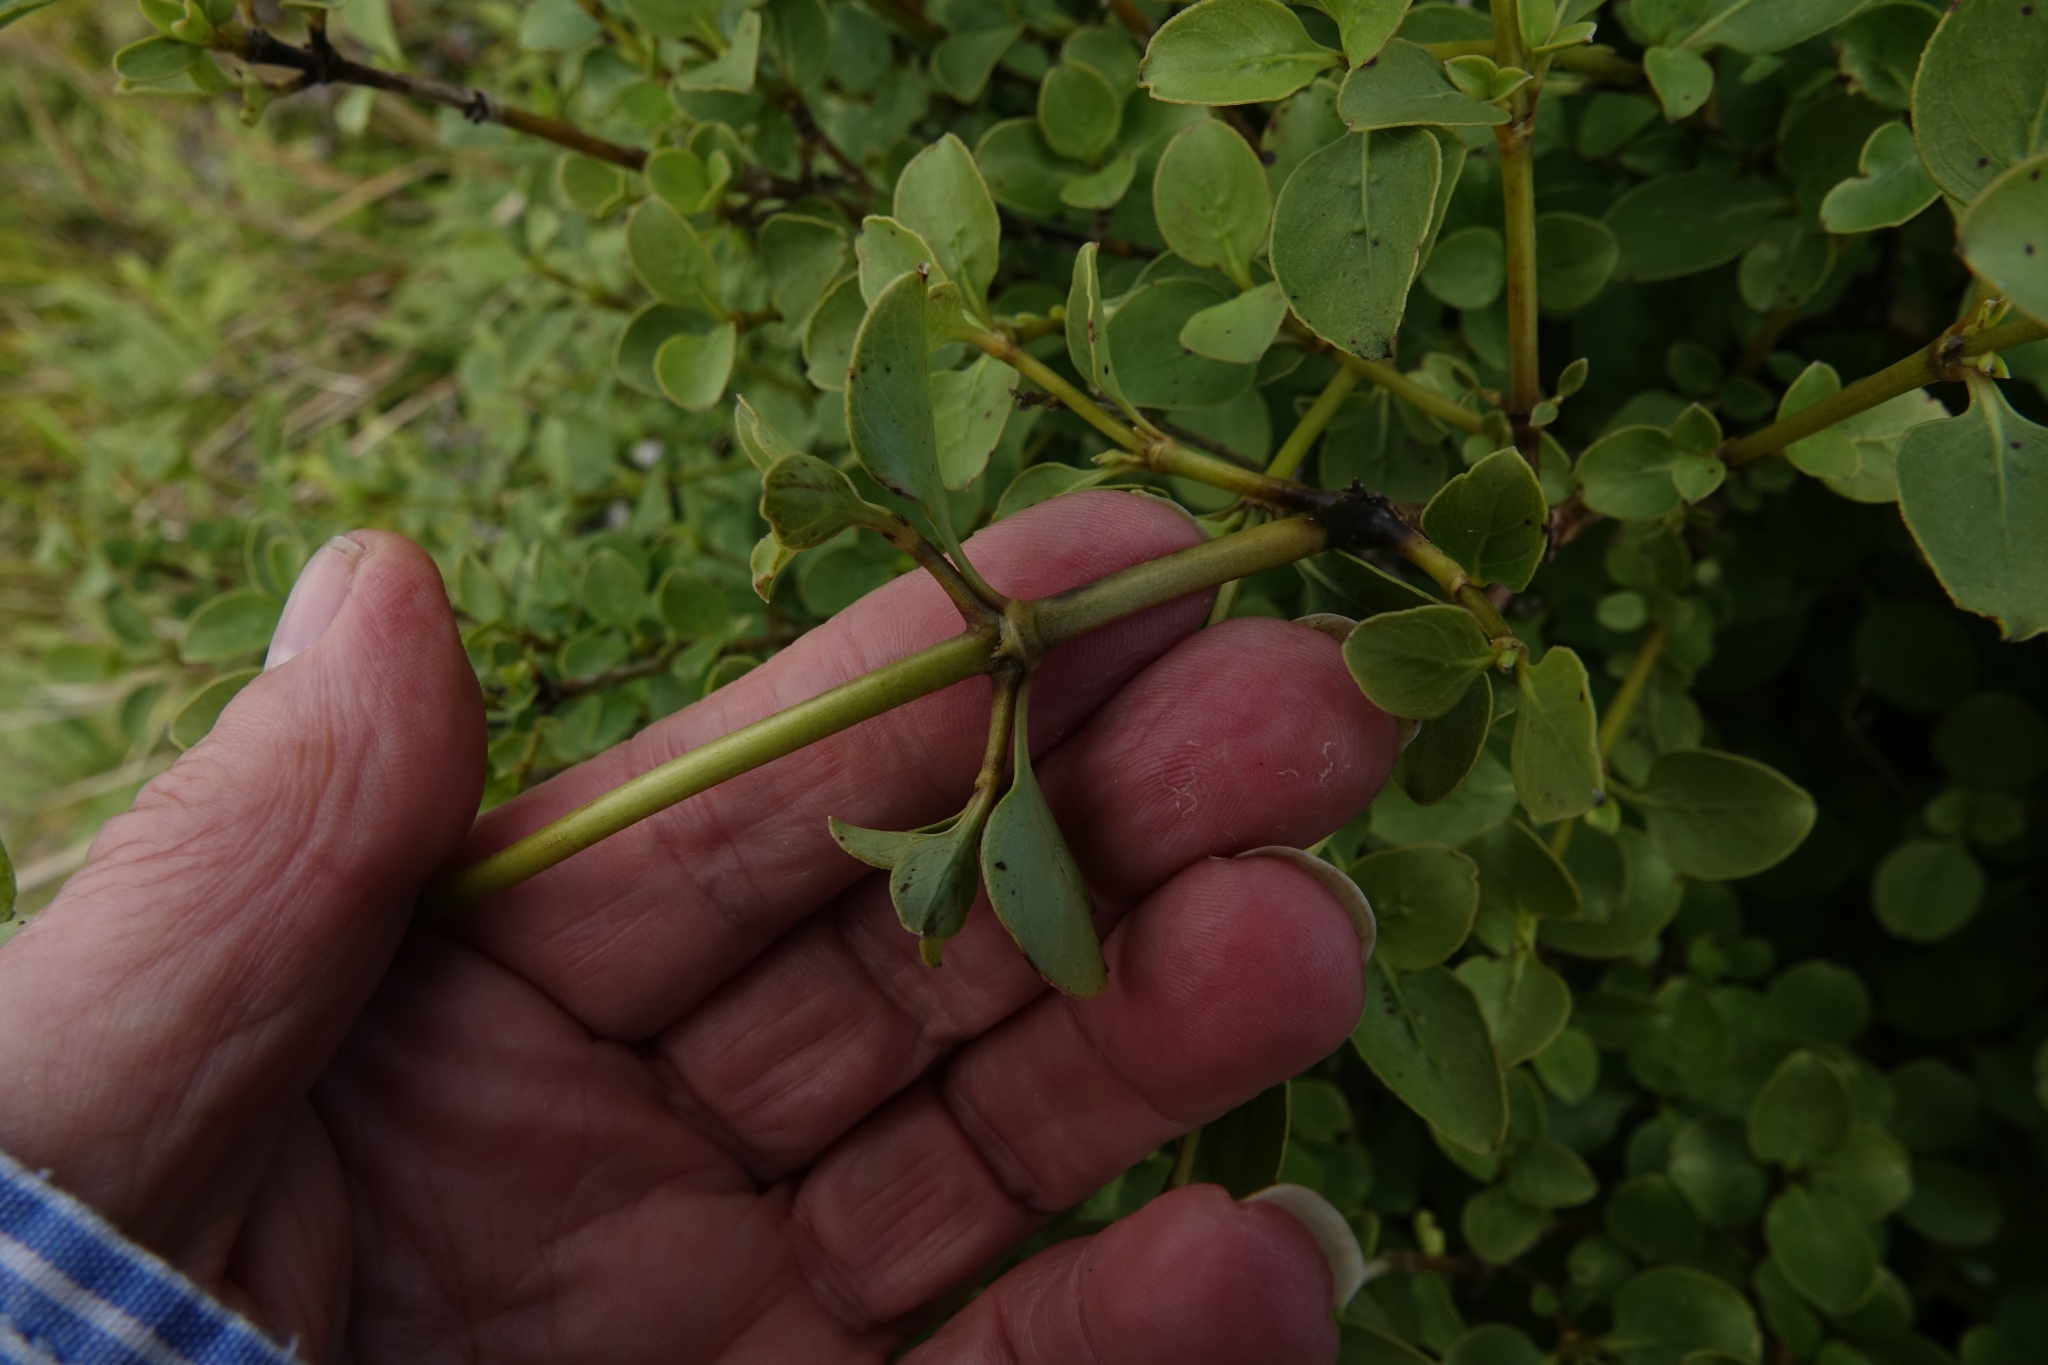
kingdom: Plantae
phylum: Tracheophyta
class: Magnoliopsida
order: Gentianales
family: Rubiaceae
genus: Coprosma
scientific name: Coprosma foetidissima
